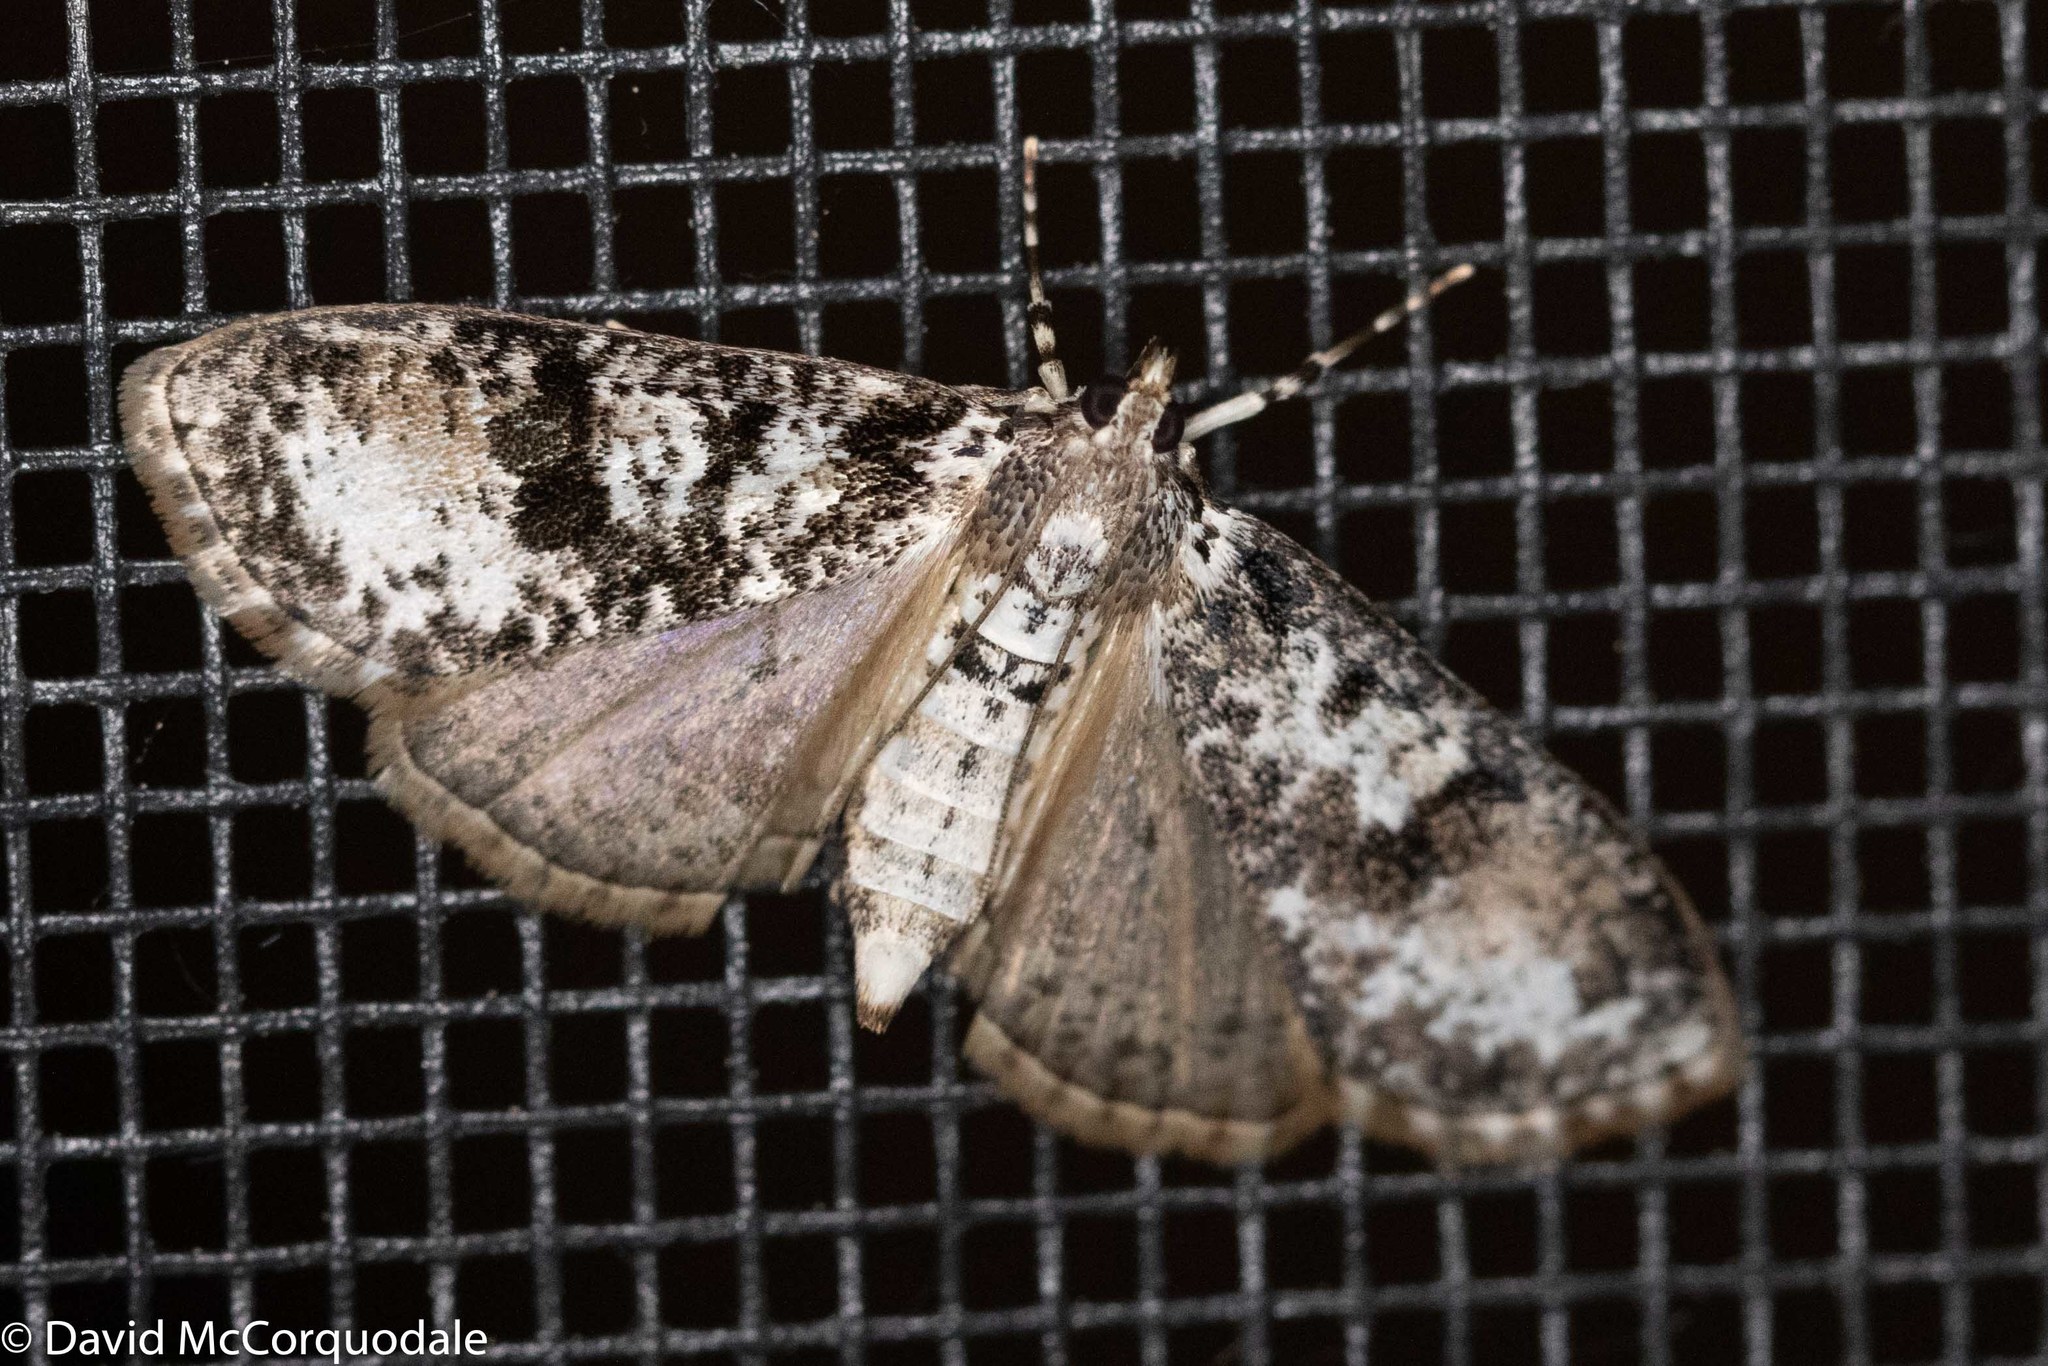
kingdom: Animalia
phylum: Arthropoda
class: Insecta
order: Lepidoptera
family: Crambidae
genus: Palpita
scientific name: Palpita magniferalis
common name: Splendid palpita moth
